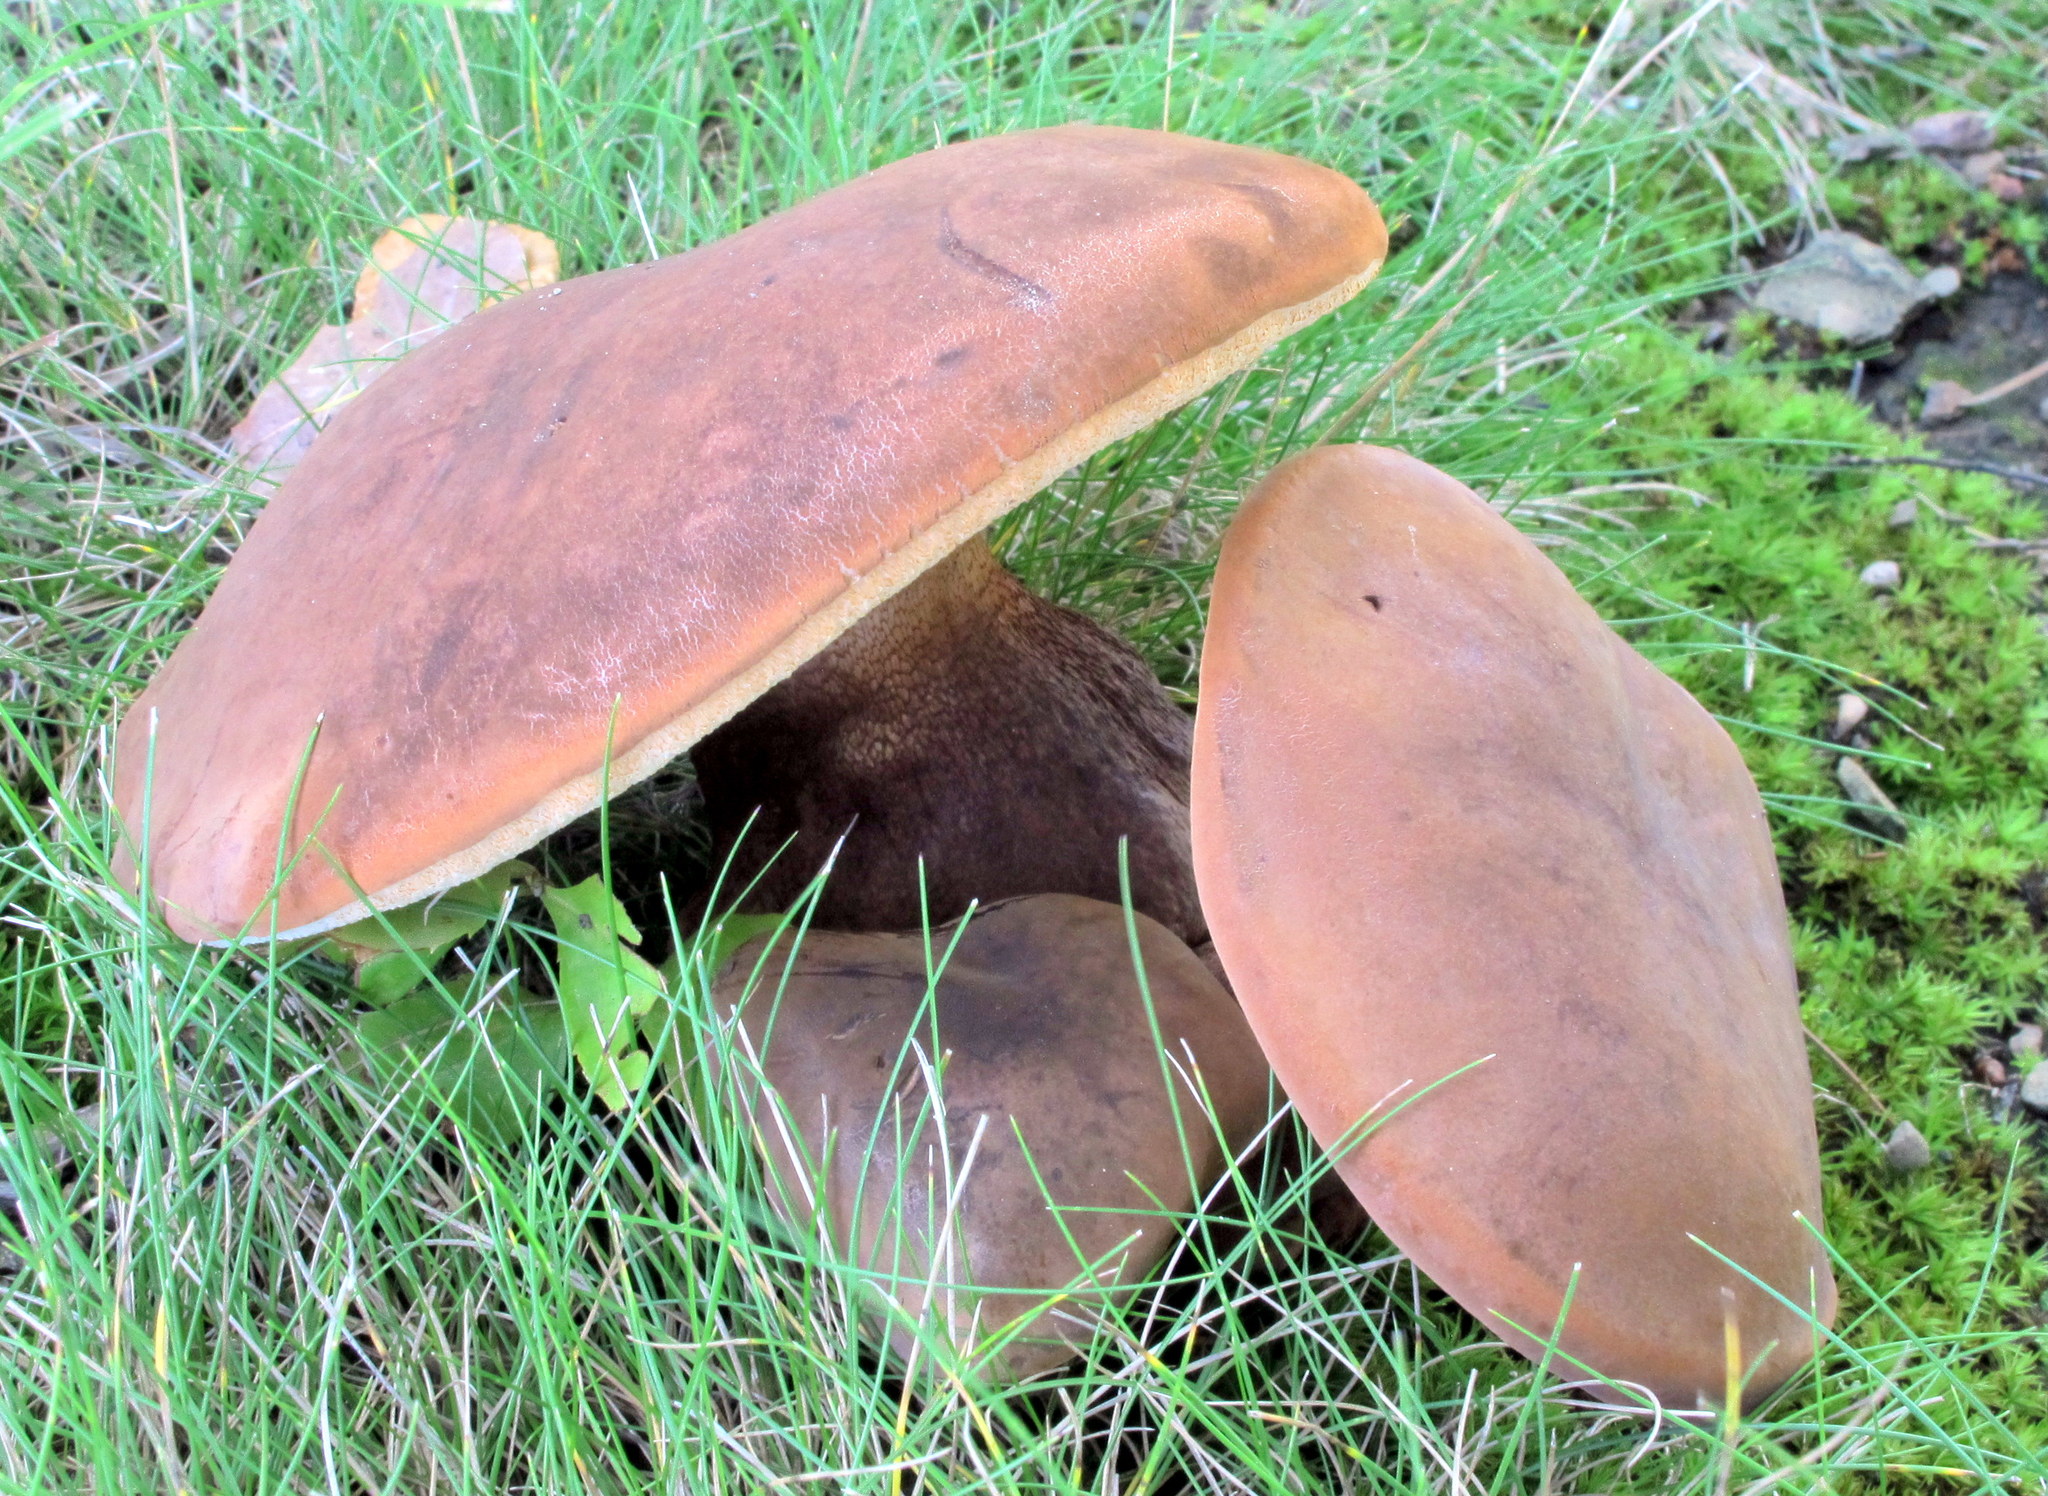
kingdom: Fungi
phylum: Basidiomycota
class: Agaricomycetes
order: Boletales
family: Boletaceae
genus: Tylopilus
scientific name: Tylopilus variobrunneus
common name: Brown-net bolete
